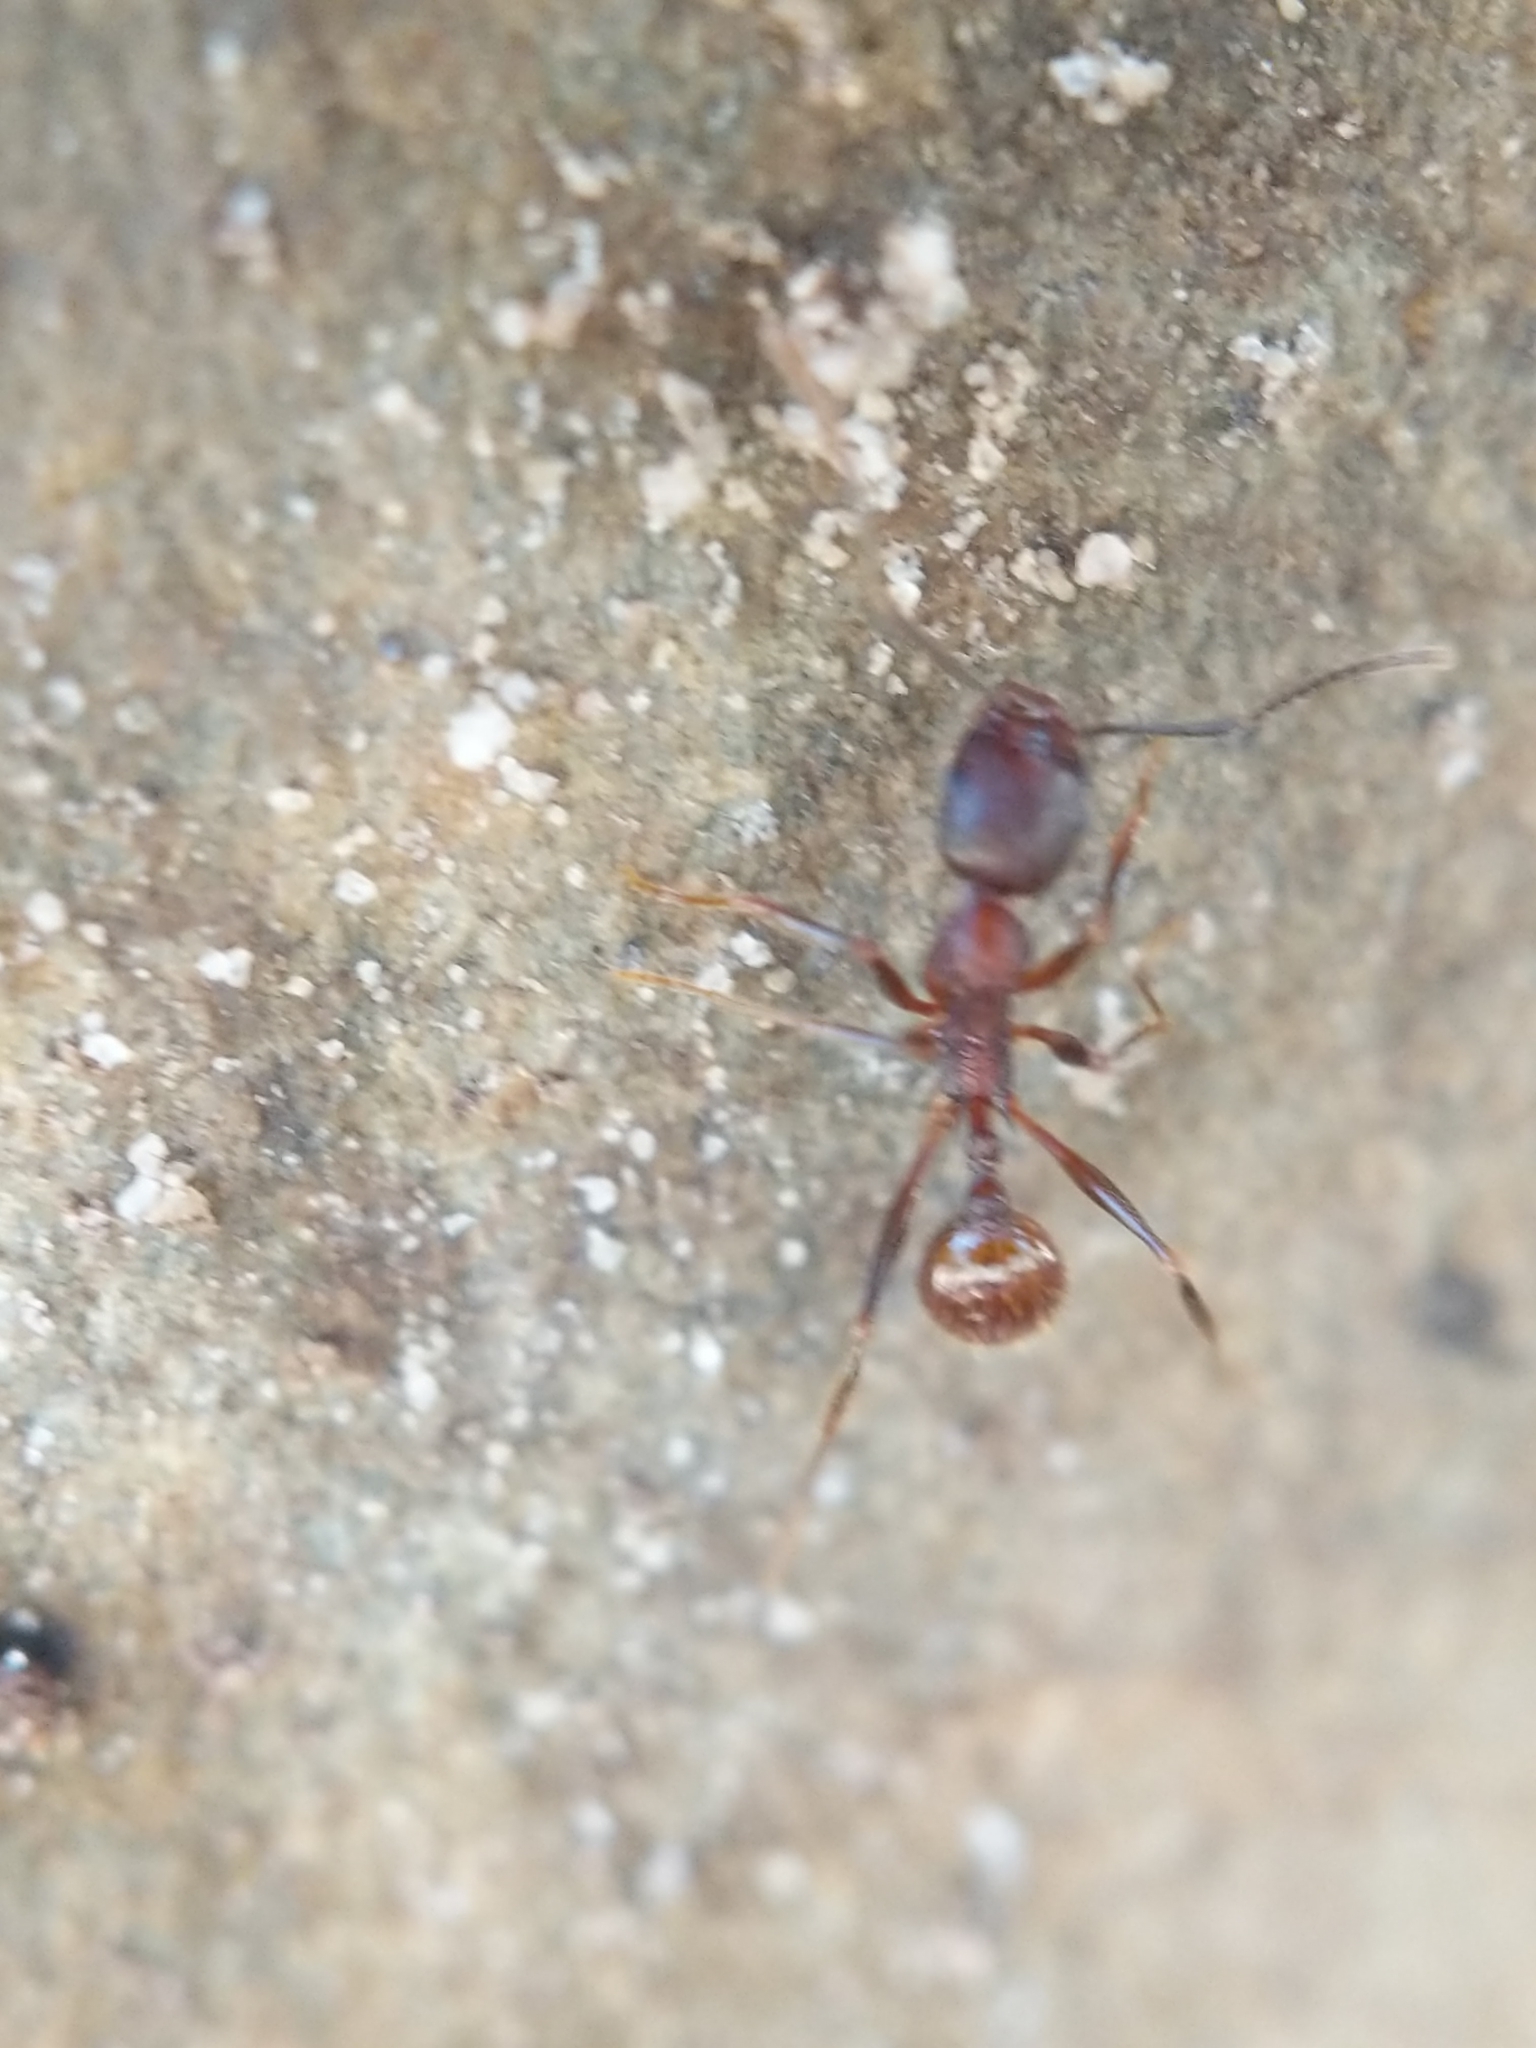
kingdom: Animalia
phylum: Arthropoda
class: Insecta
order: Hymenoptera
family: Formicidae
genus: Aphaenogaster
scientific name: Aphaenogaster fulva
